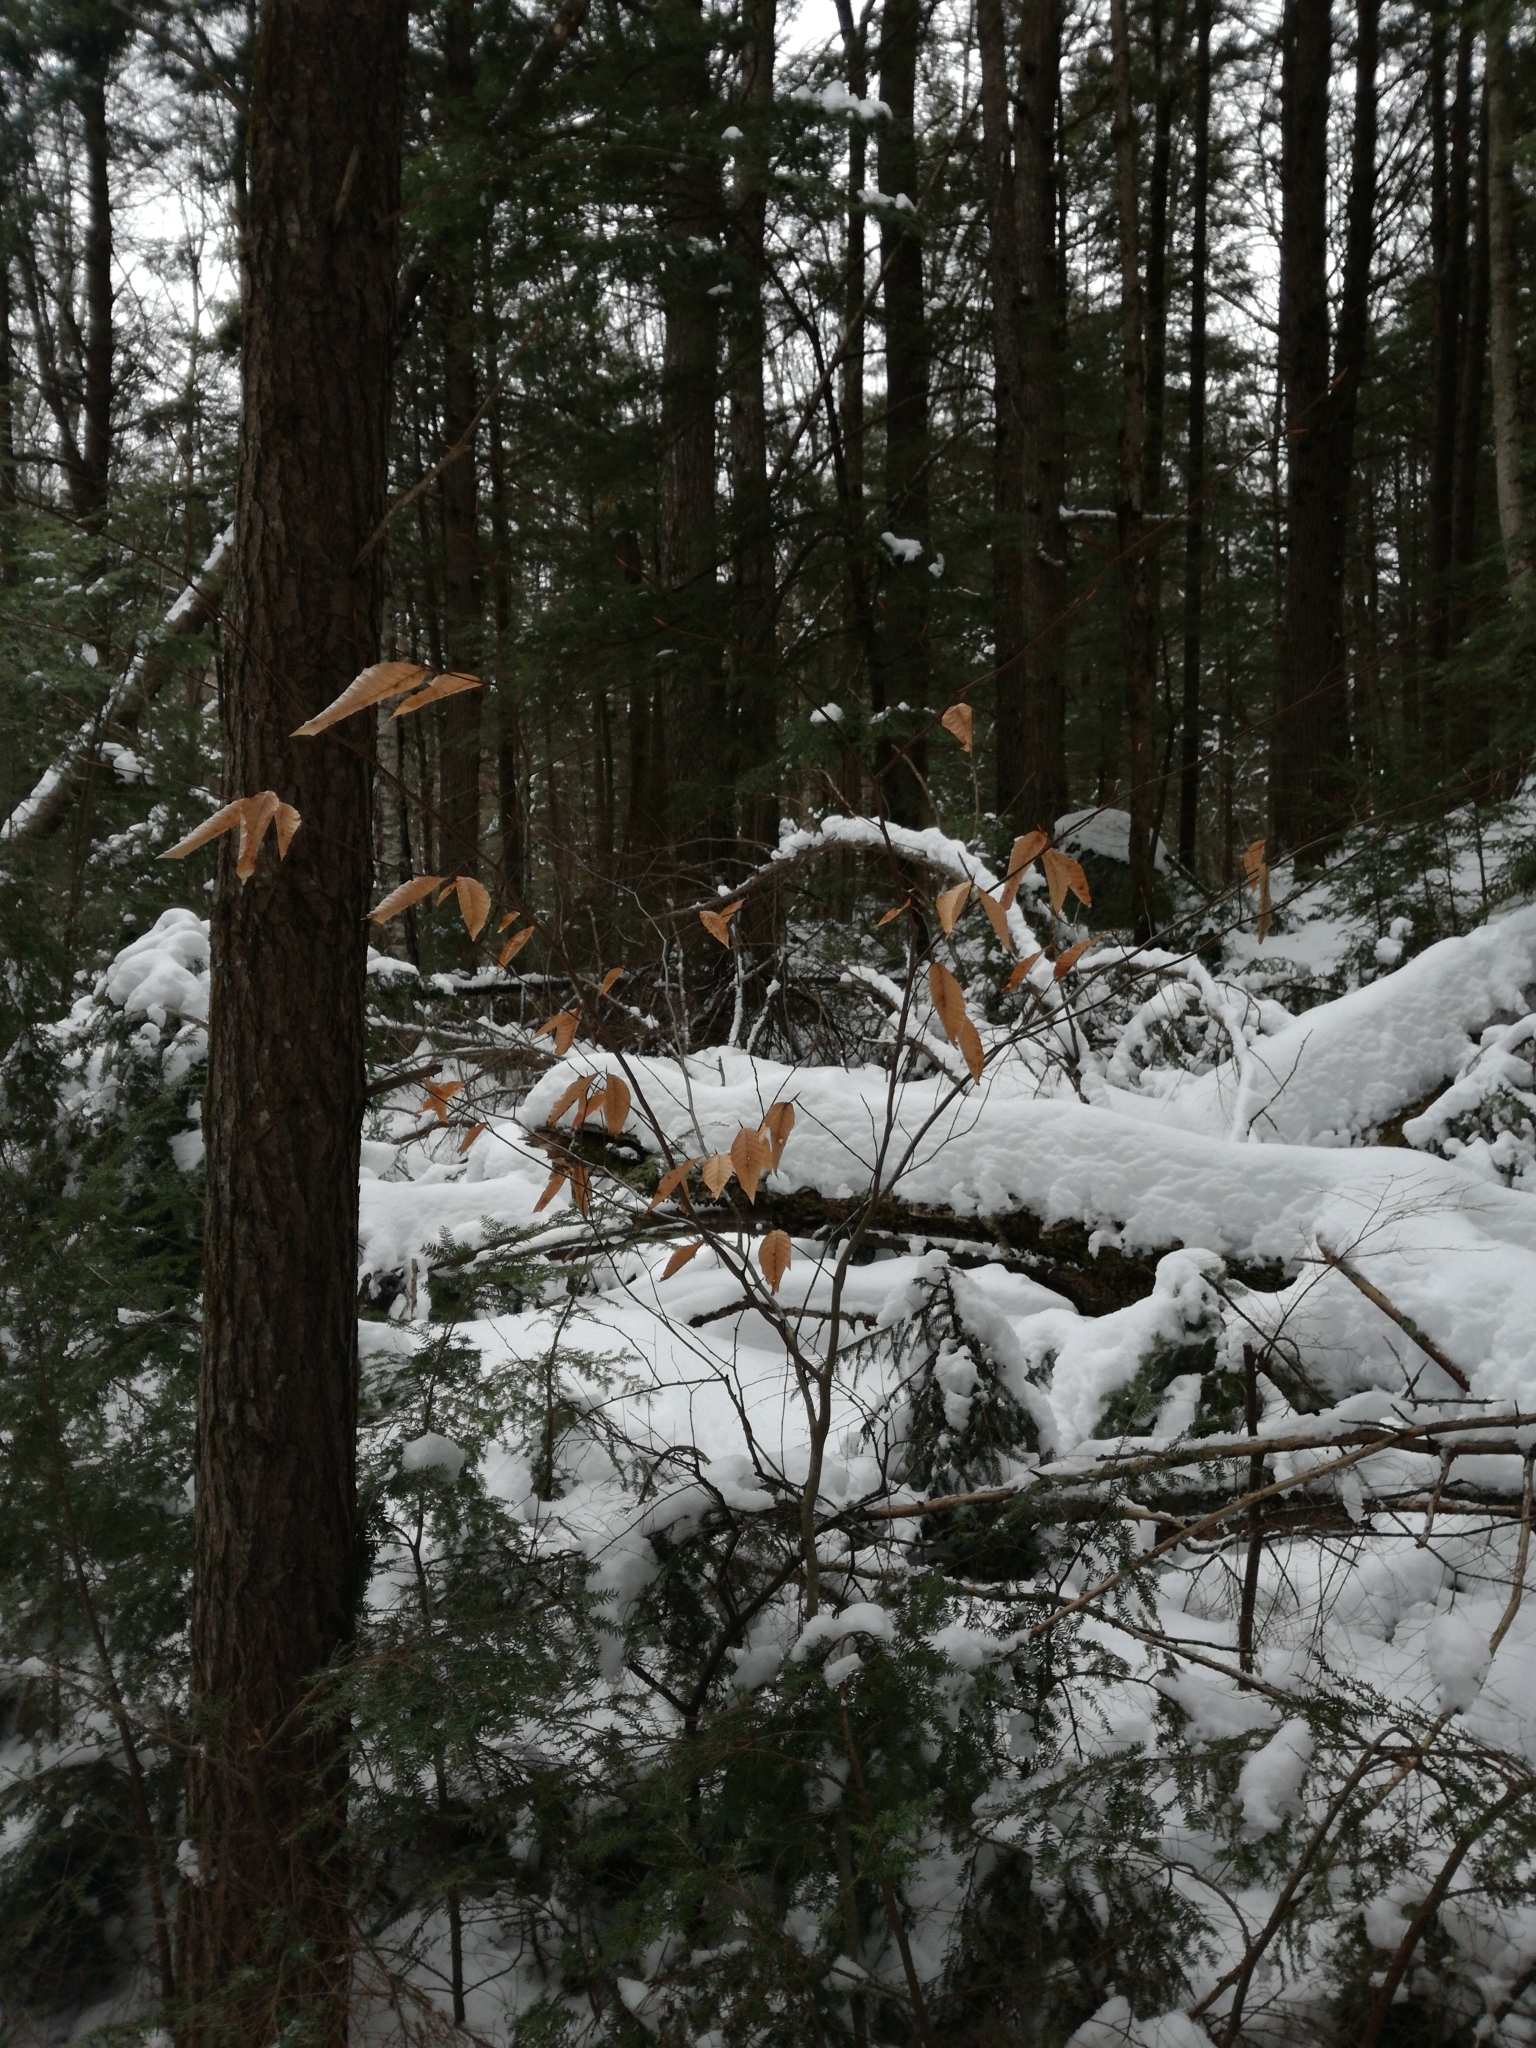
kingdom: Plantae
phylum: Tracheophyta
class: Magnoliopsida
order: Fagales
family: Fagaceae
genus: Fagus
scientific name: Fagus grandifolia
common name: American beech
